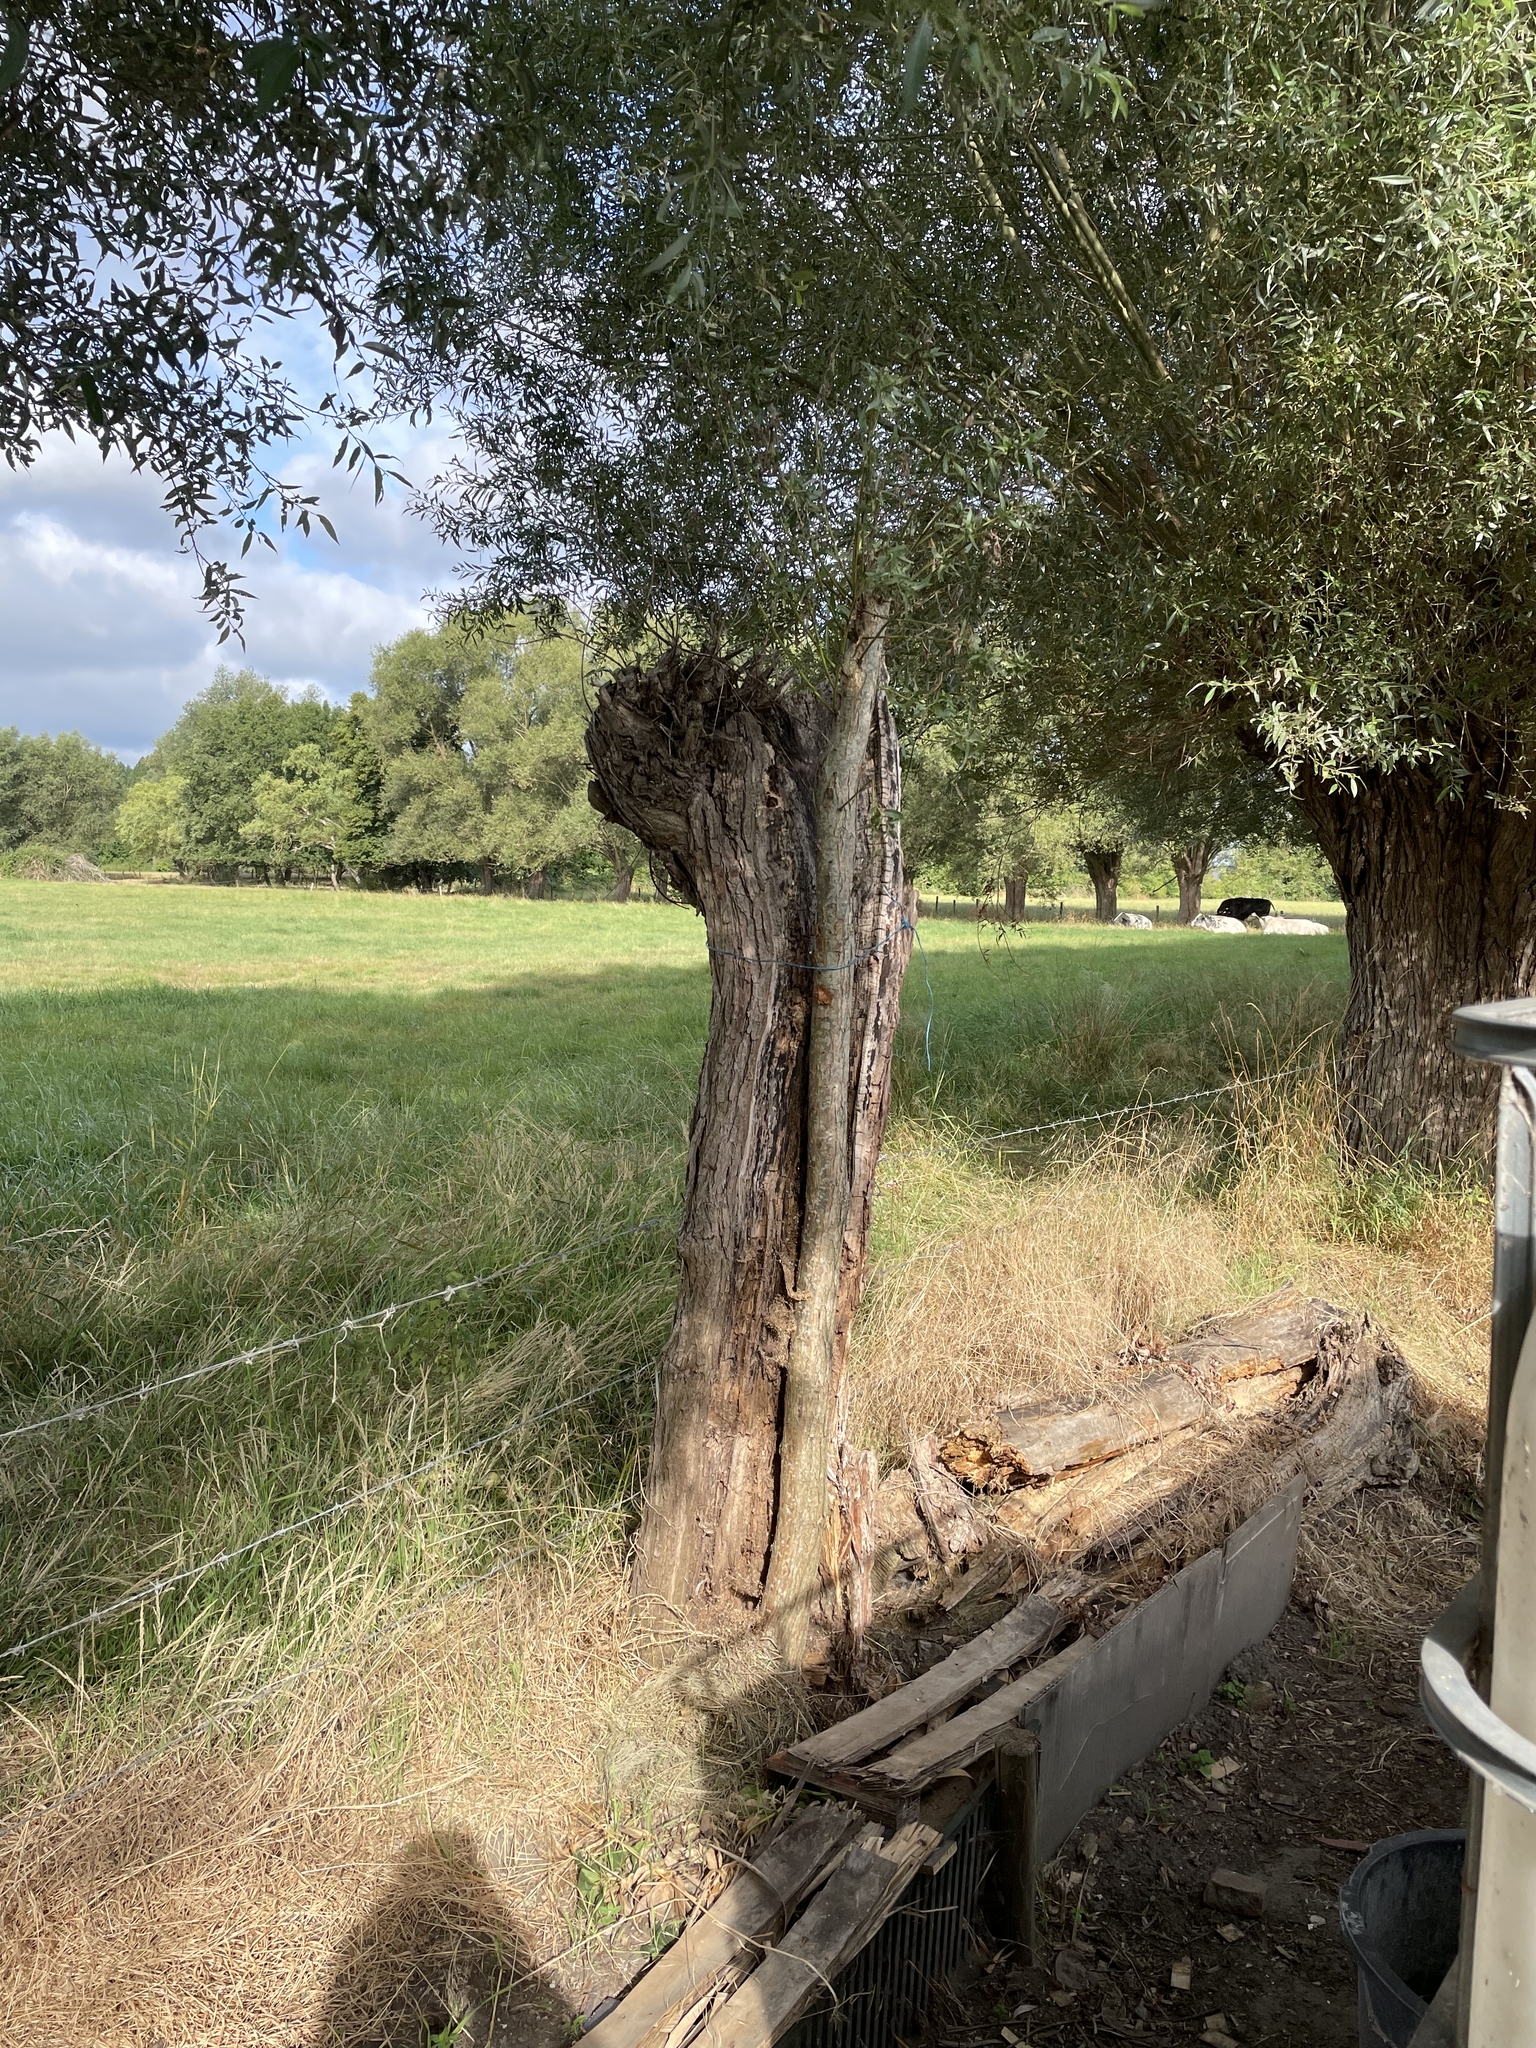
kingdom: Animalia
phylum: Arthropoda
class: Insecta
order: Hymenoptera
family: Vespidae
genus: Vespa
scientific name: Vespa crabro
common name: Hornet
